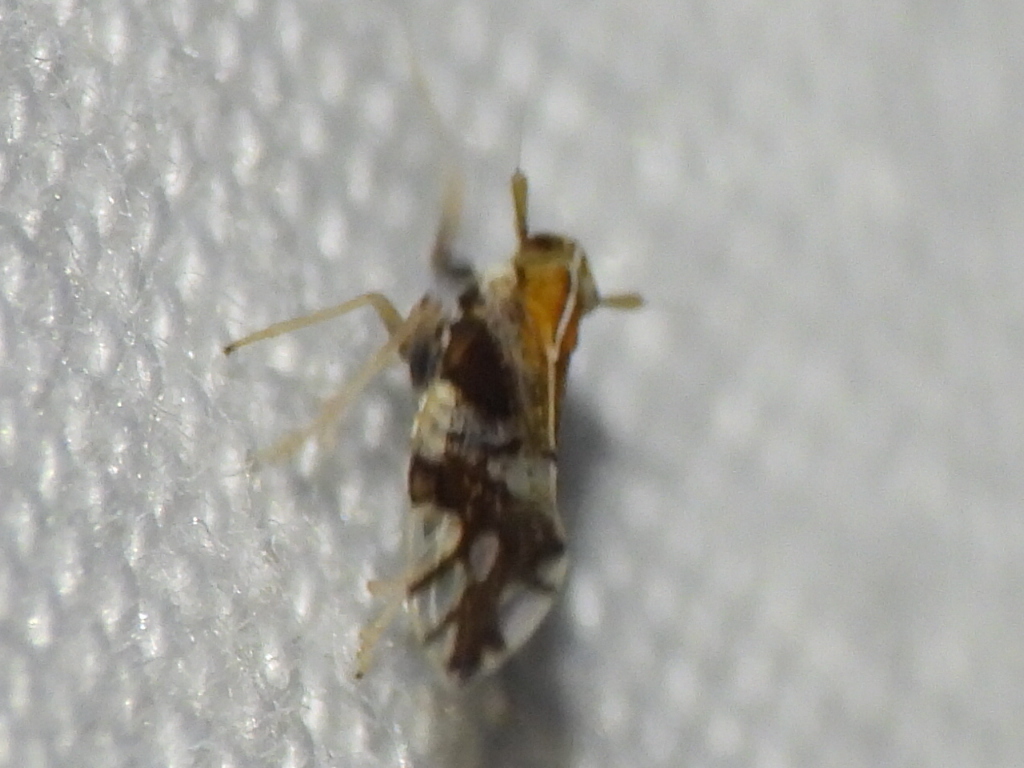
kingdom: Animalia
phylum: Arthropoda
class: Insecta
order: Hemiptera
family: Delphacidae
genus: Liburniella
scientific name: Liburniella ornata
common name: Ornate planthopper
